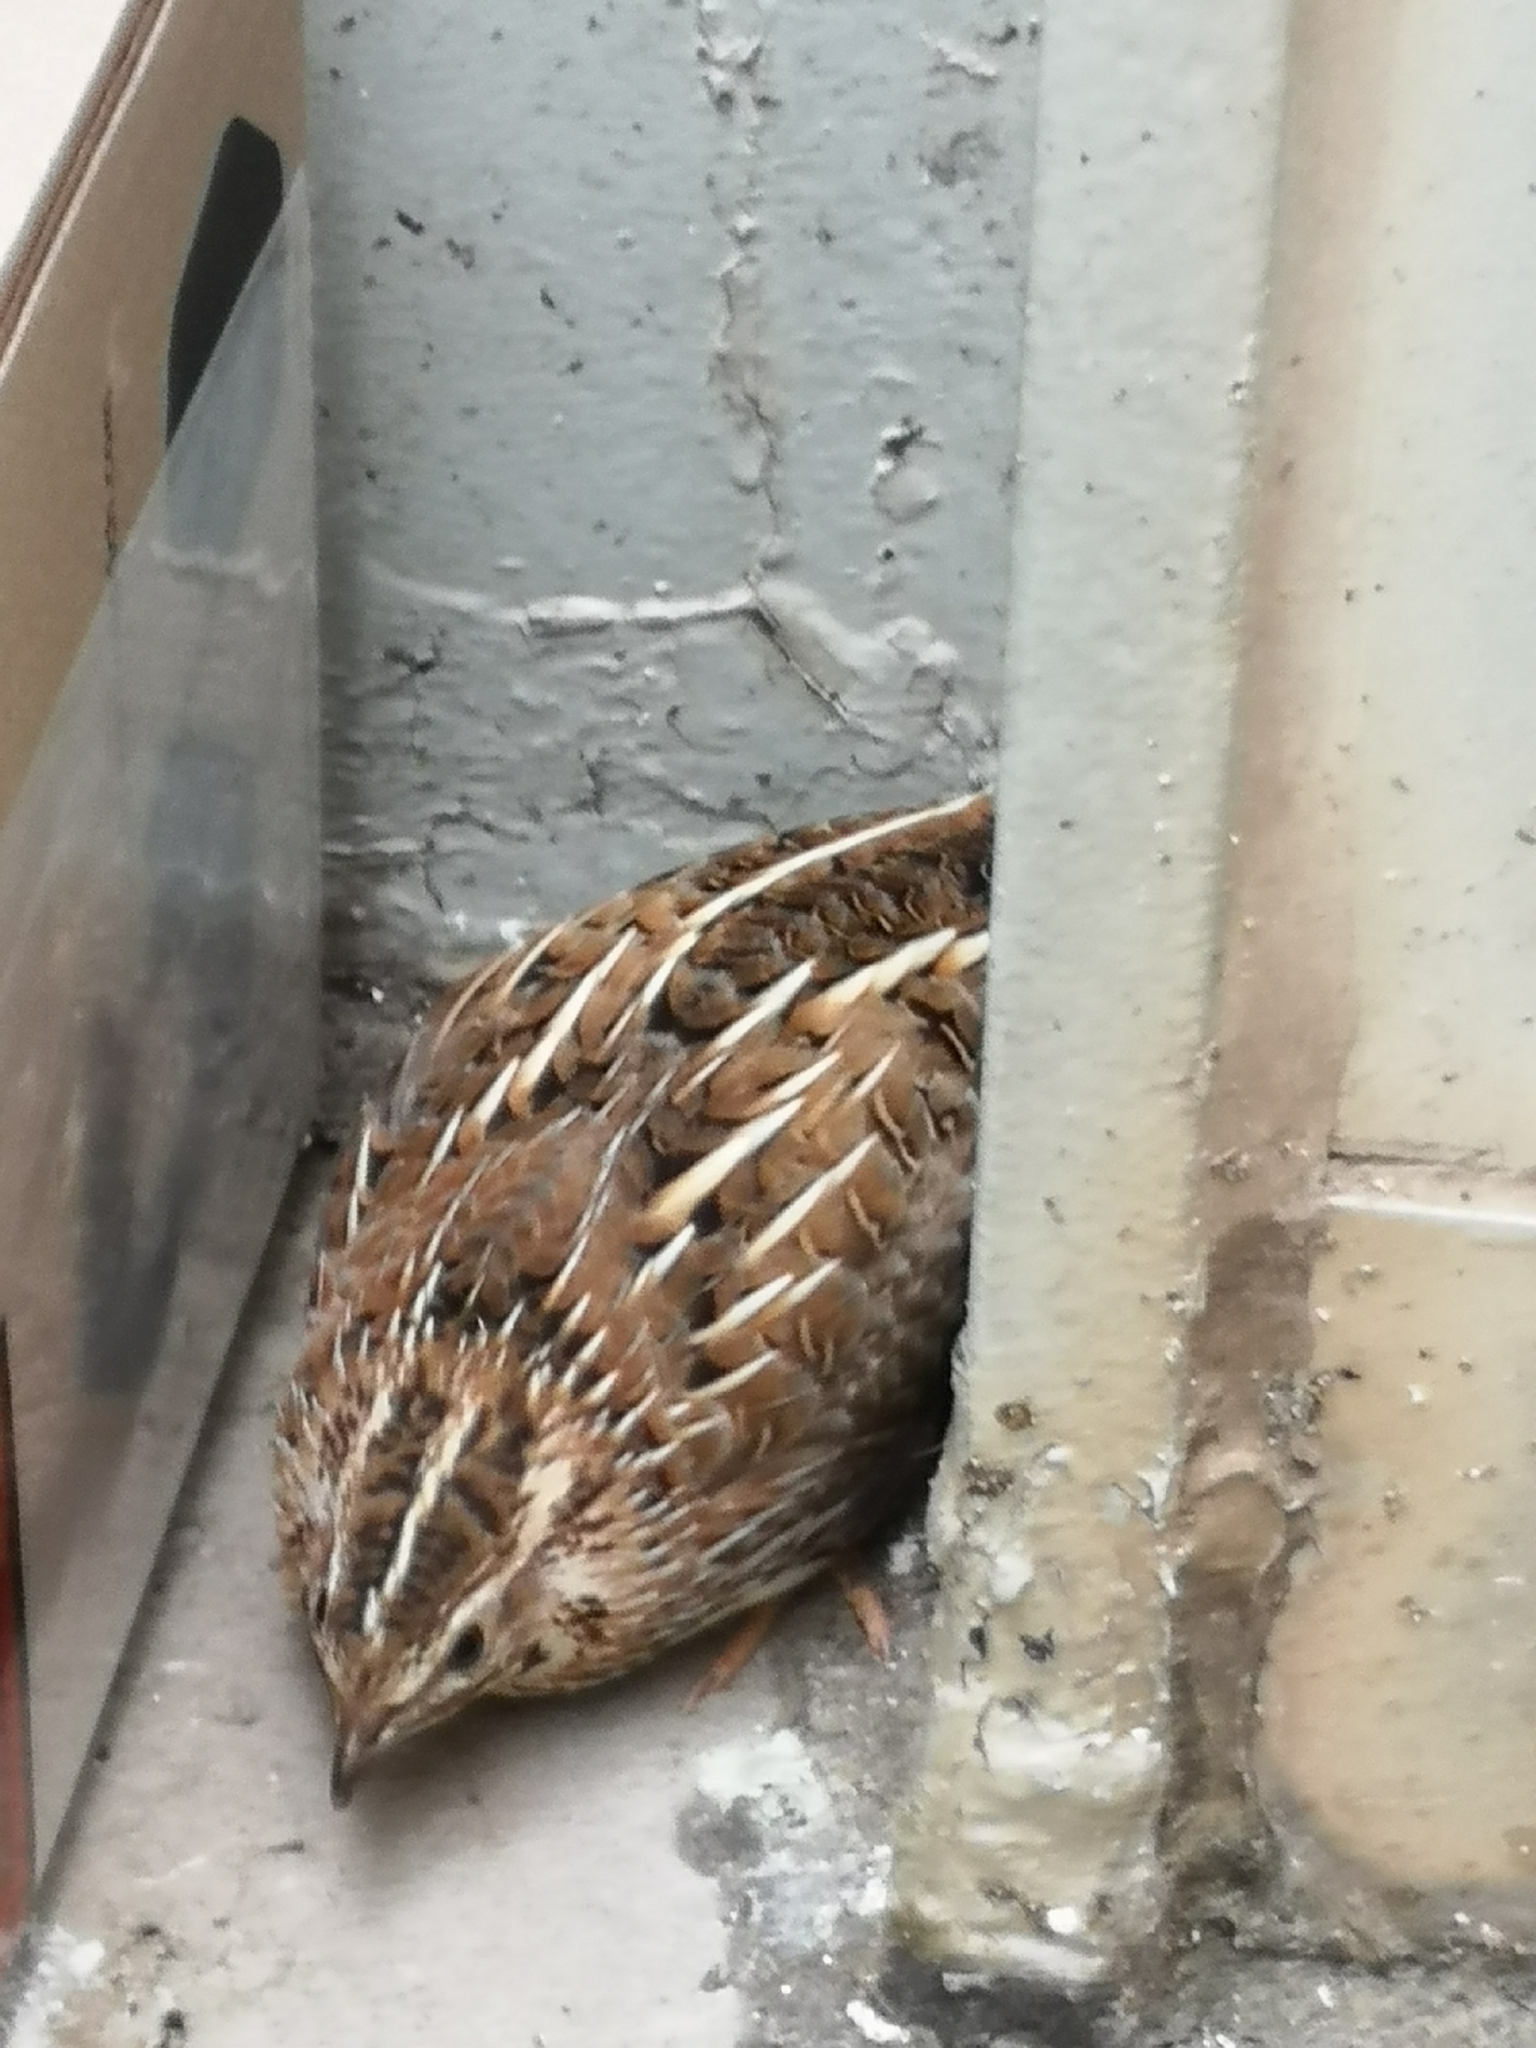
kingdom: Animalia
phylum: Chordata
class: Aves
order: Galliformes
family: Phasianidae
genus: Coturnix
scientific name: Coturnix coturnix
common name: Common quail
